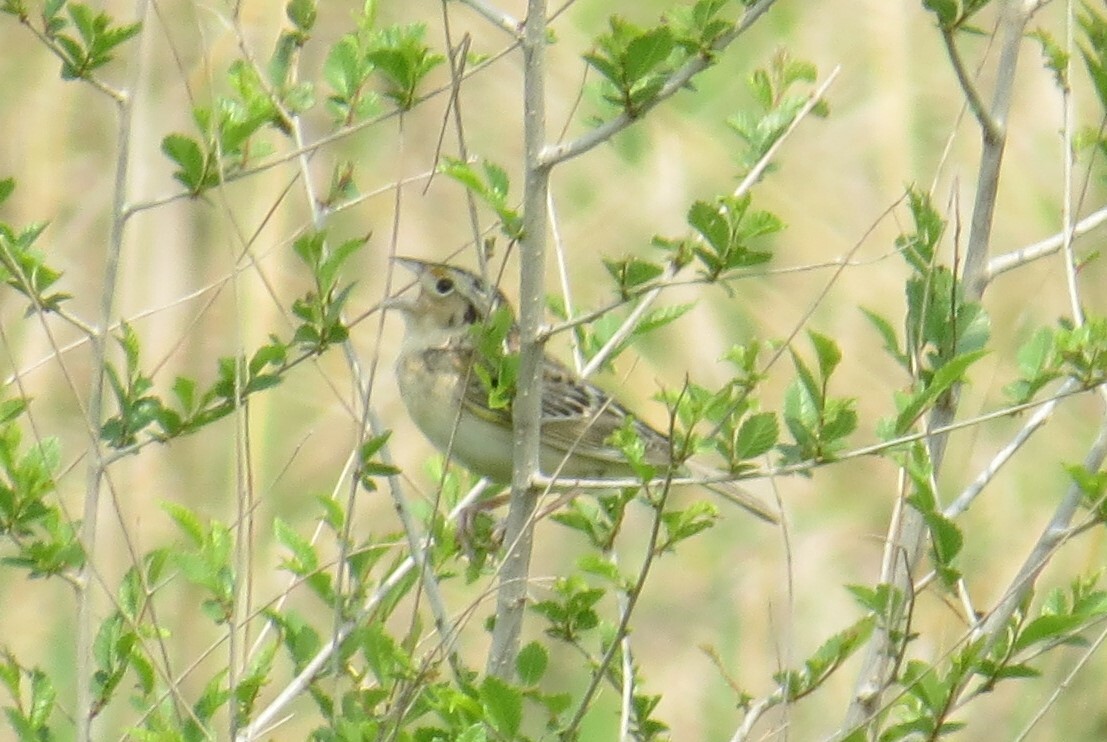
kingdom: Animalia
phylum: Chordata
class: Aves
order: Passeriformes
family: Passerellidae
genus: Ammodramus
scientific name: Ammodramus savannarum
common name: Grasshopper sparrow
